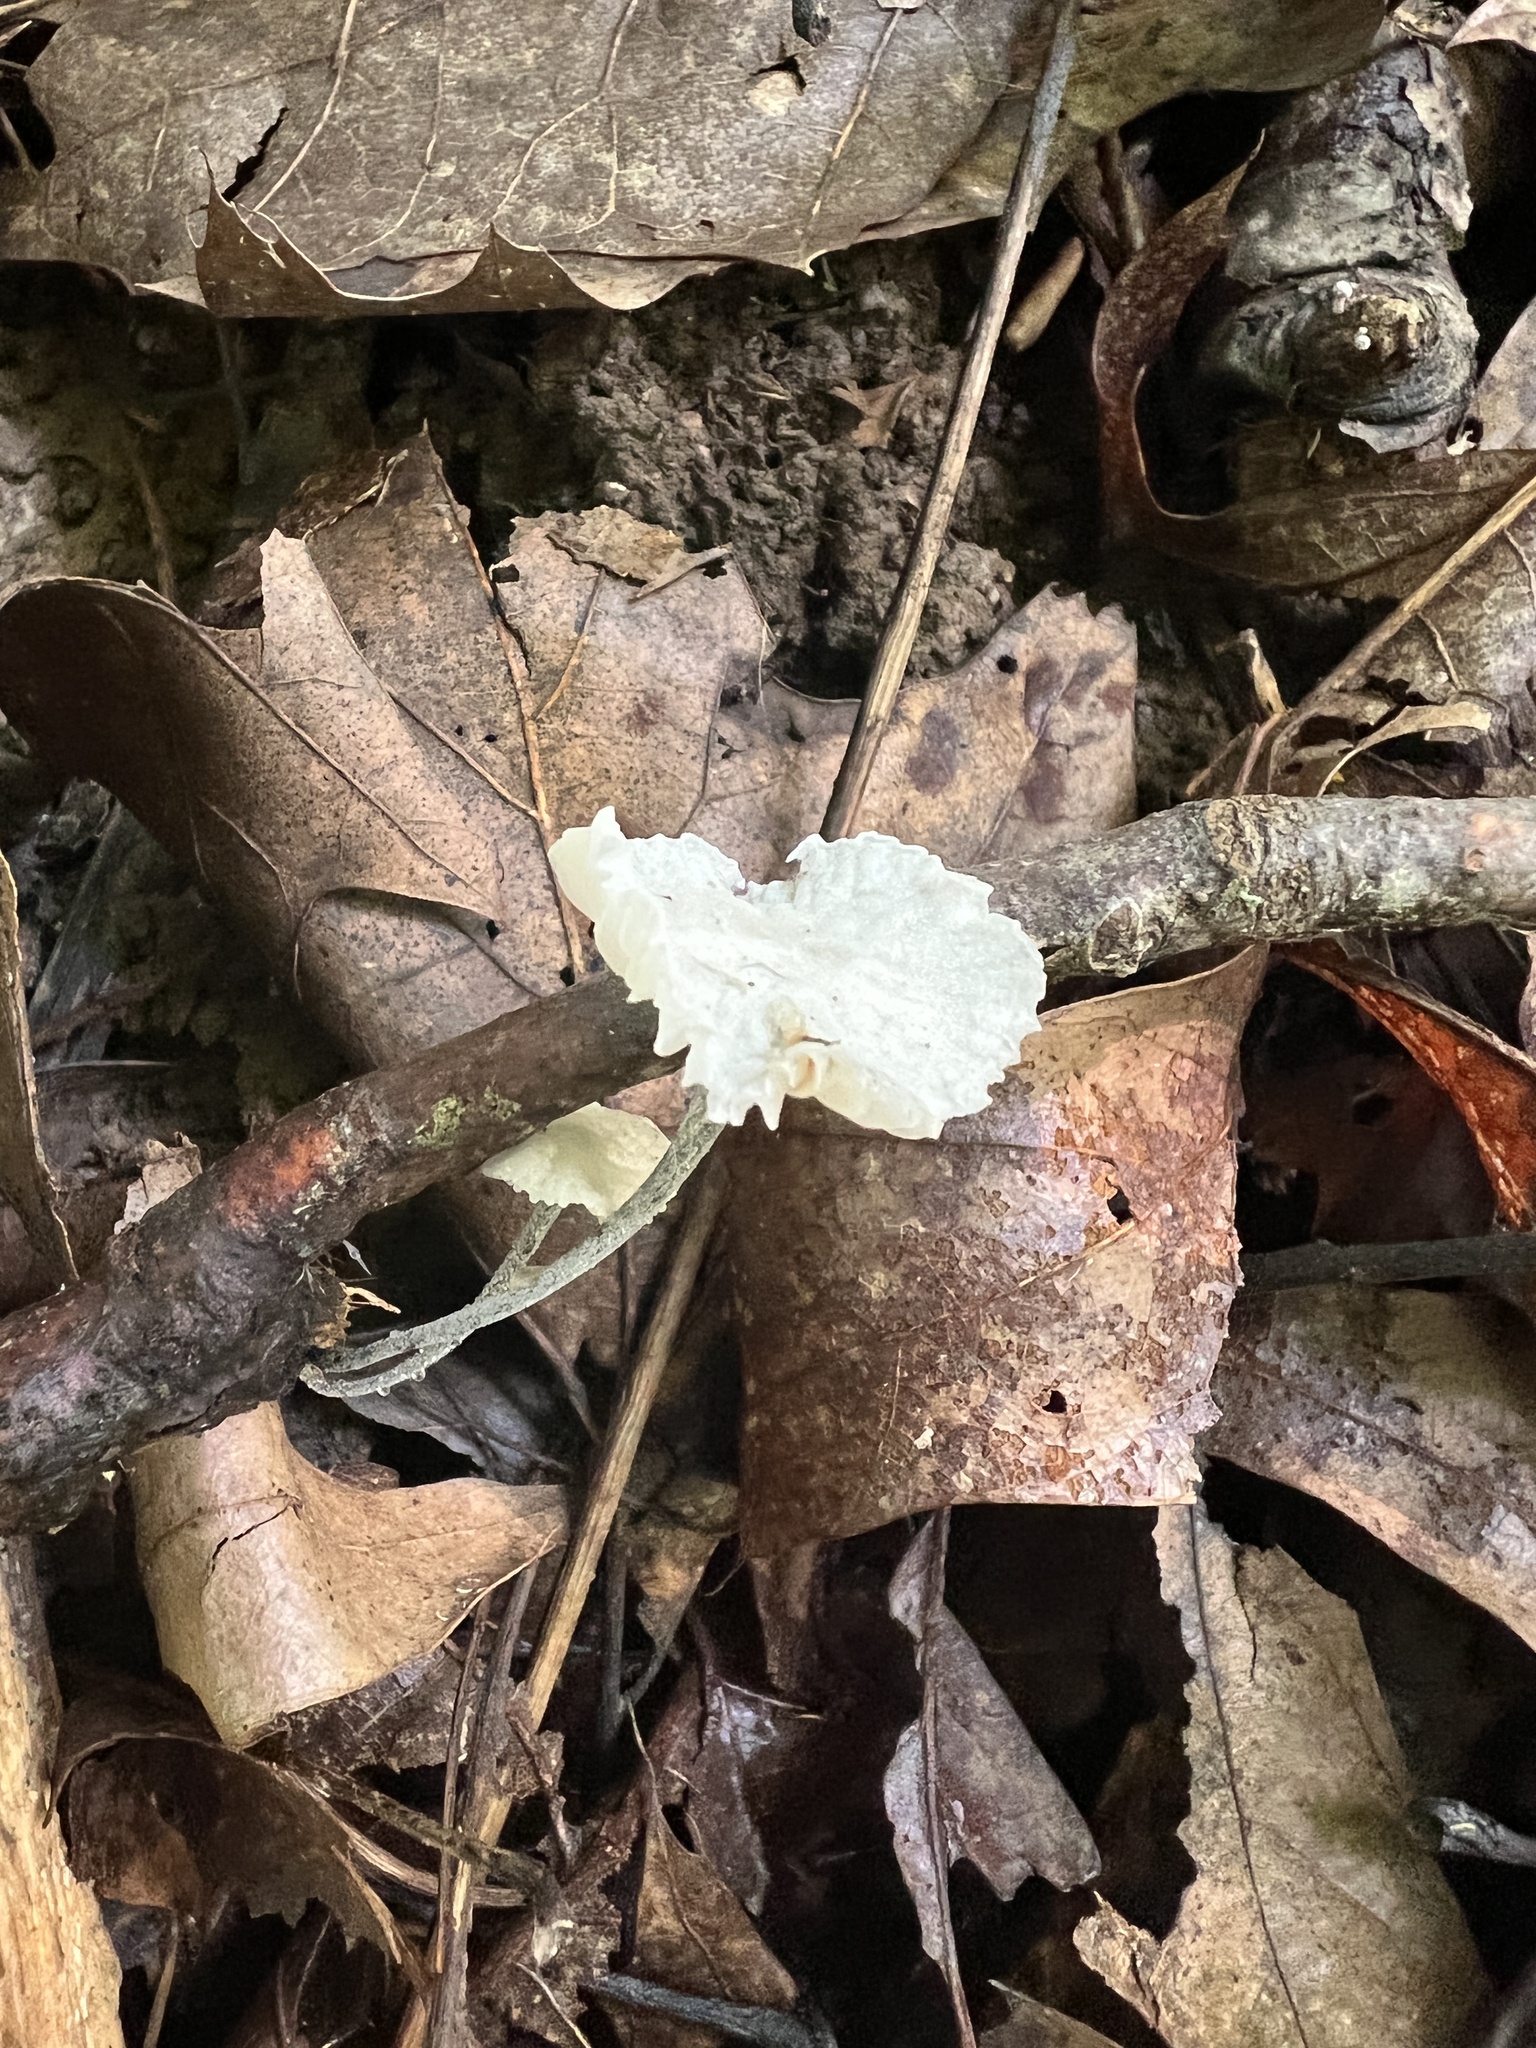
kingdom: Fungi
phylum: Basidiomycota
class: Agaricomycetes
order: Agaricales
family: Marasmiaceae
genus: Tetrapyrgos
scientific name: Tetrapyrgos nigripes
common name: Black-stalked marasmius
